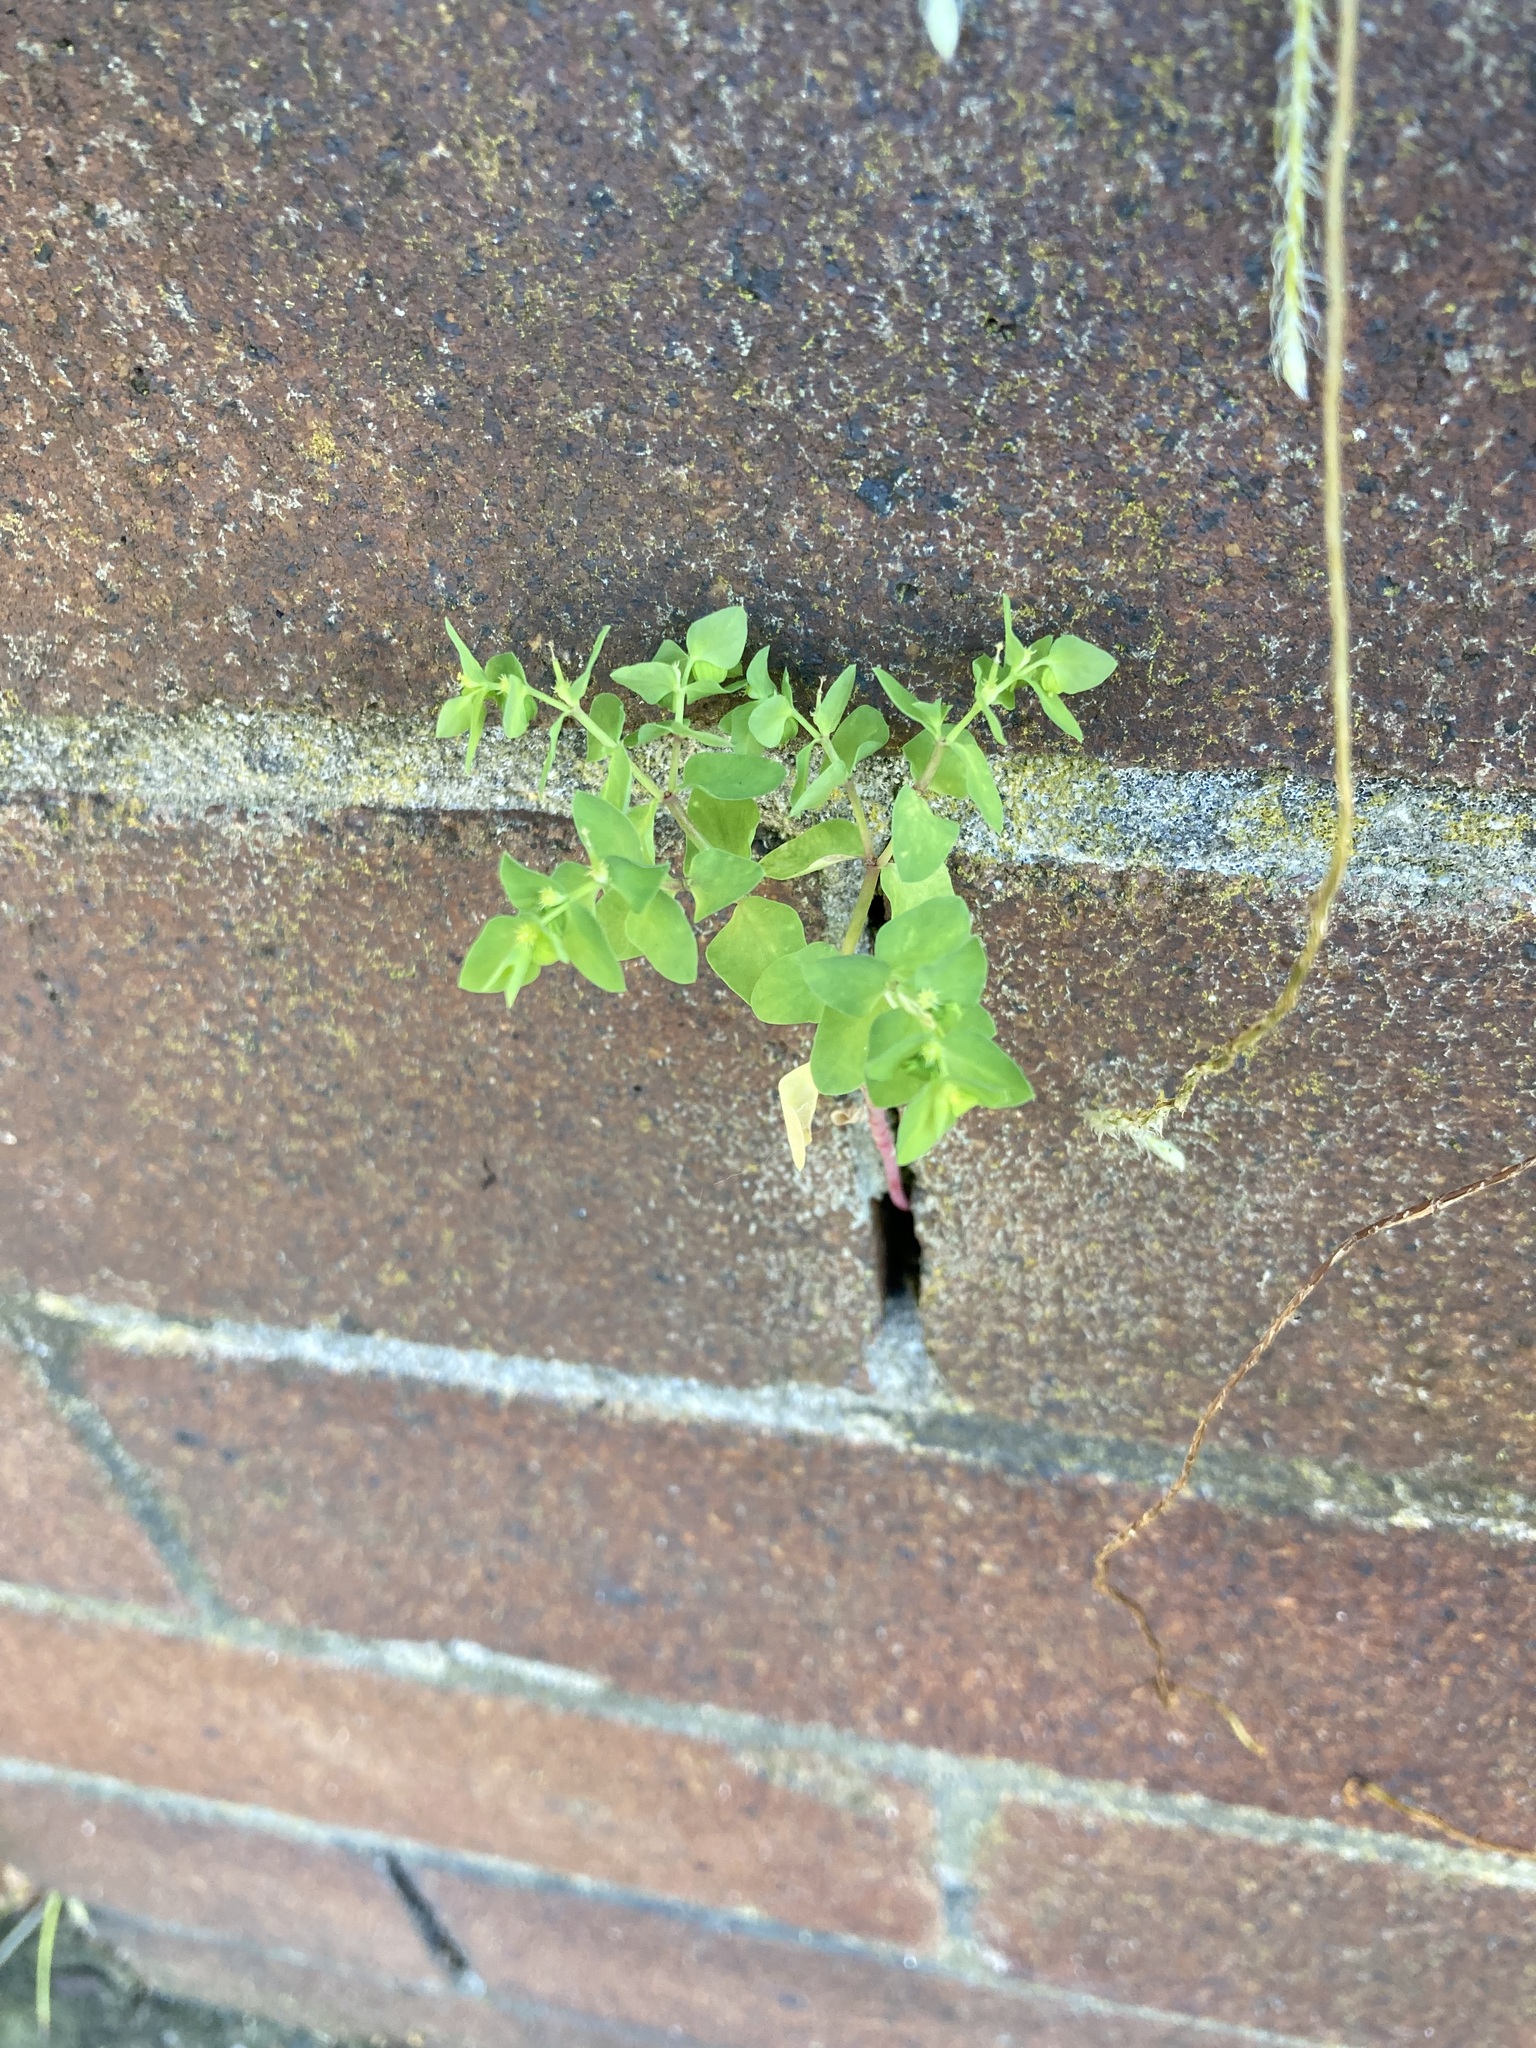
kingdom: Plantae
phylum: Tracheophyta
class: Magnoliopsida
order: Malpighiales
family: Euphorbiaceae
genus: Euphorbia
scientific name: Euphorbia peplus
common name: Petty spurge
